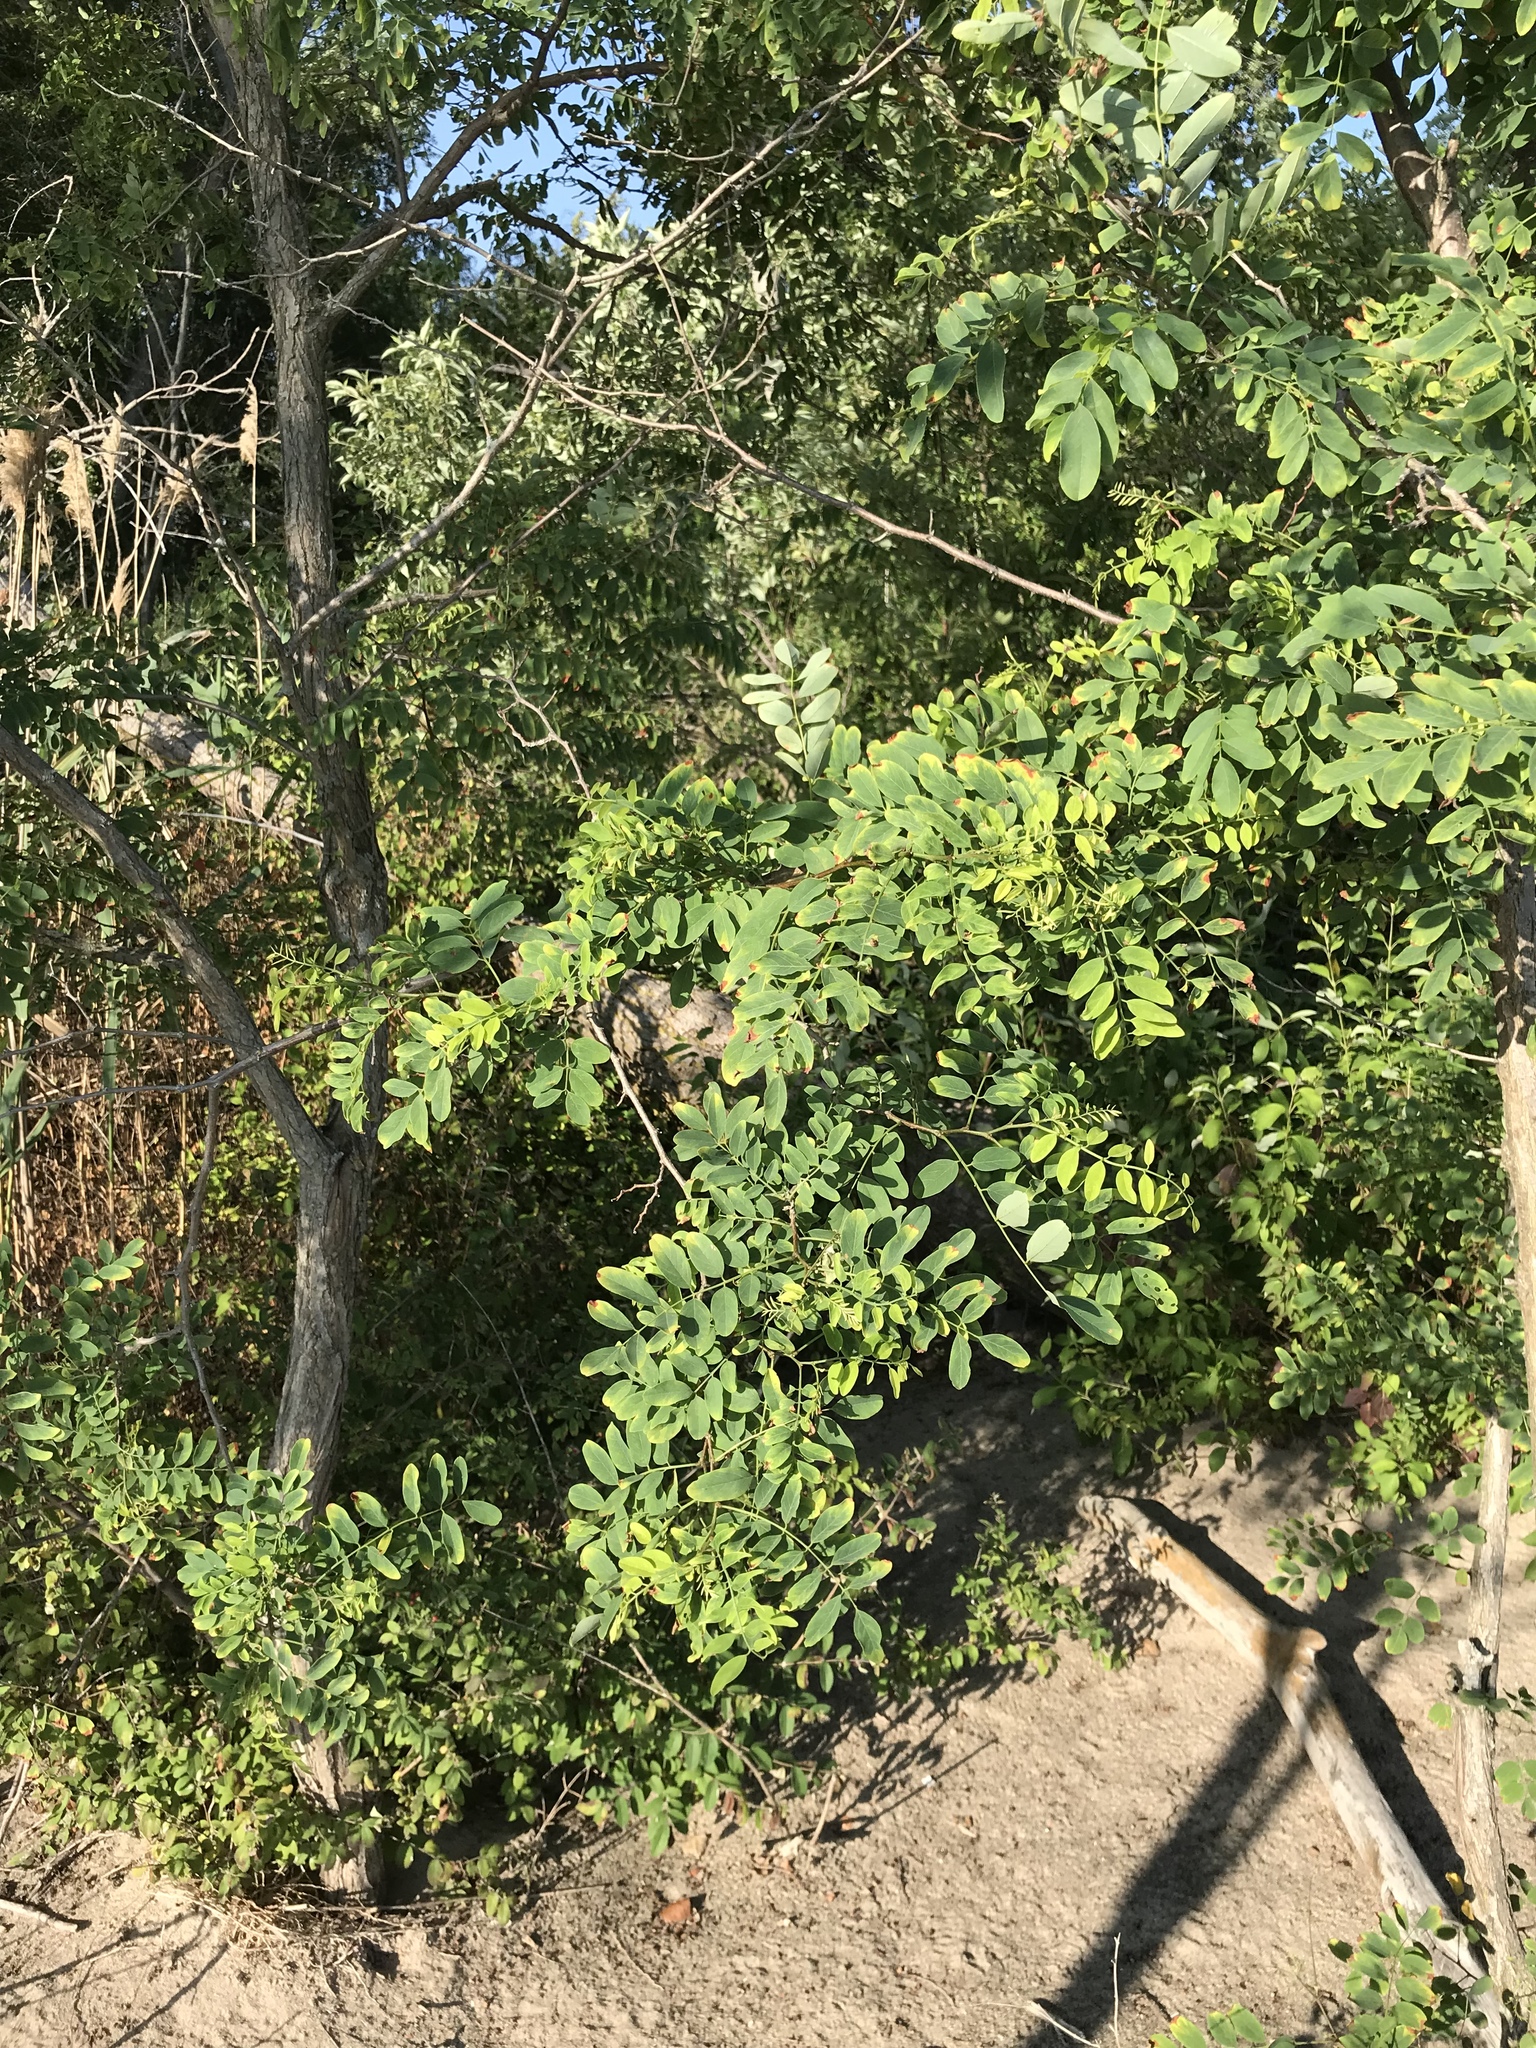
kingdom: Plantae
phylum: Tracheophyta
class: Magnoliopsida
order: Fabales
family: Fabaceae
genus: Robinia
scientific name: Robinia pseudoacacia
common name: Black locust
